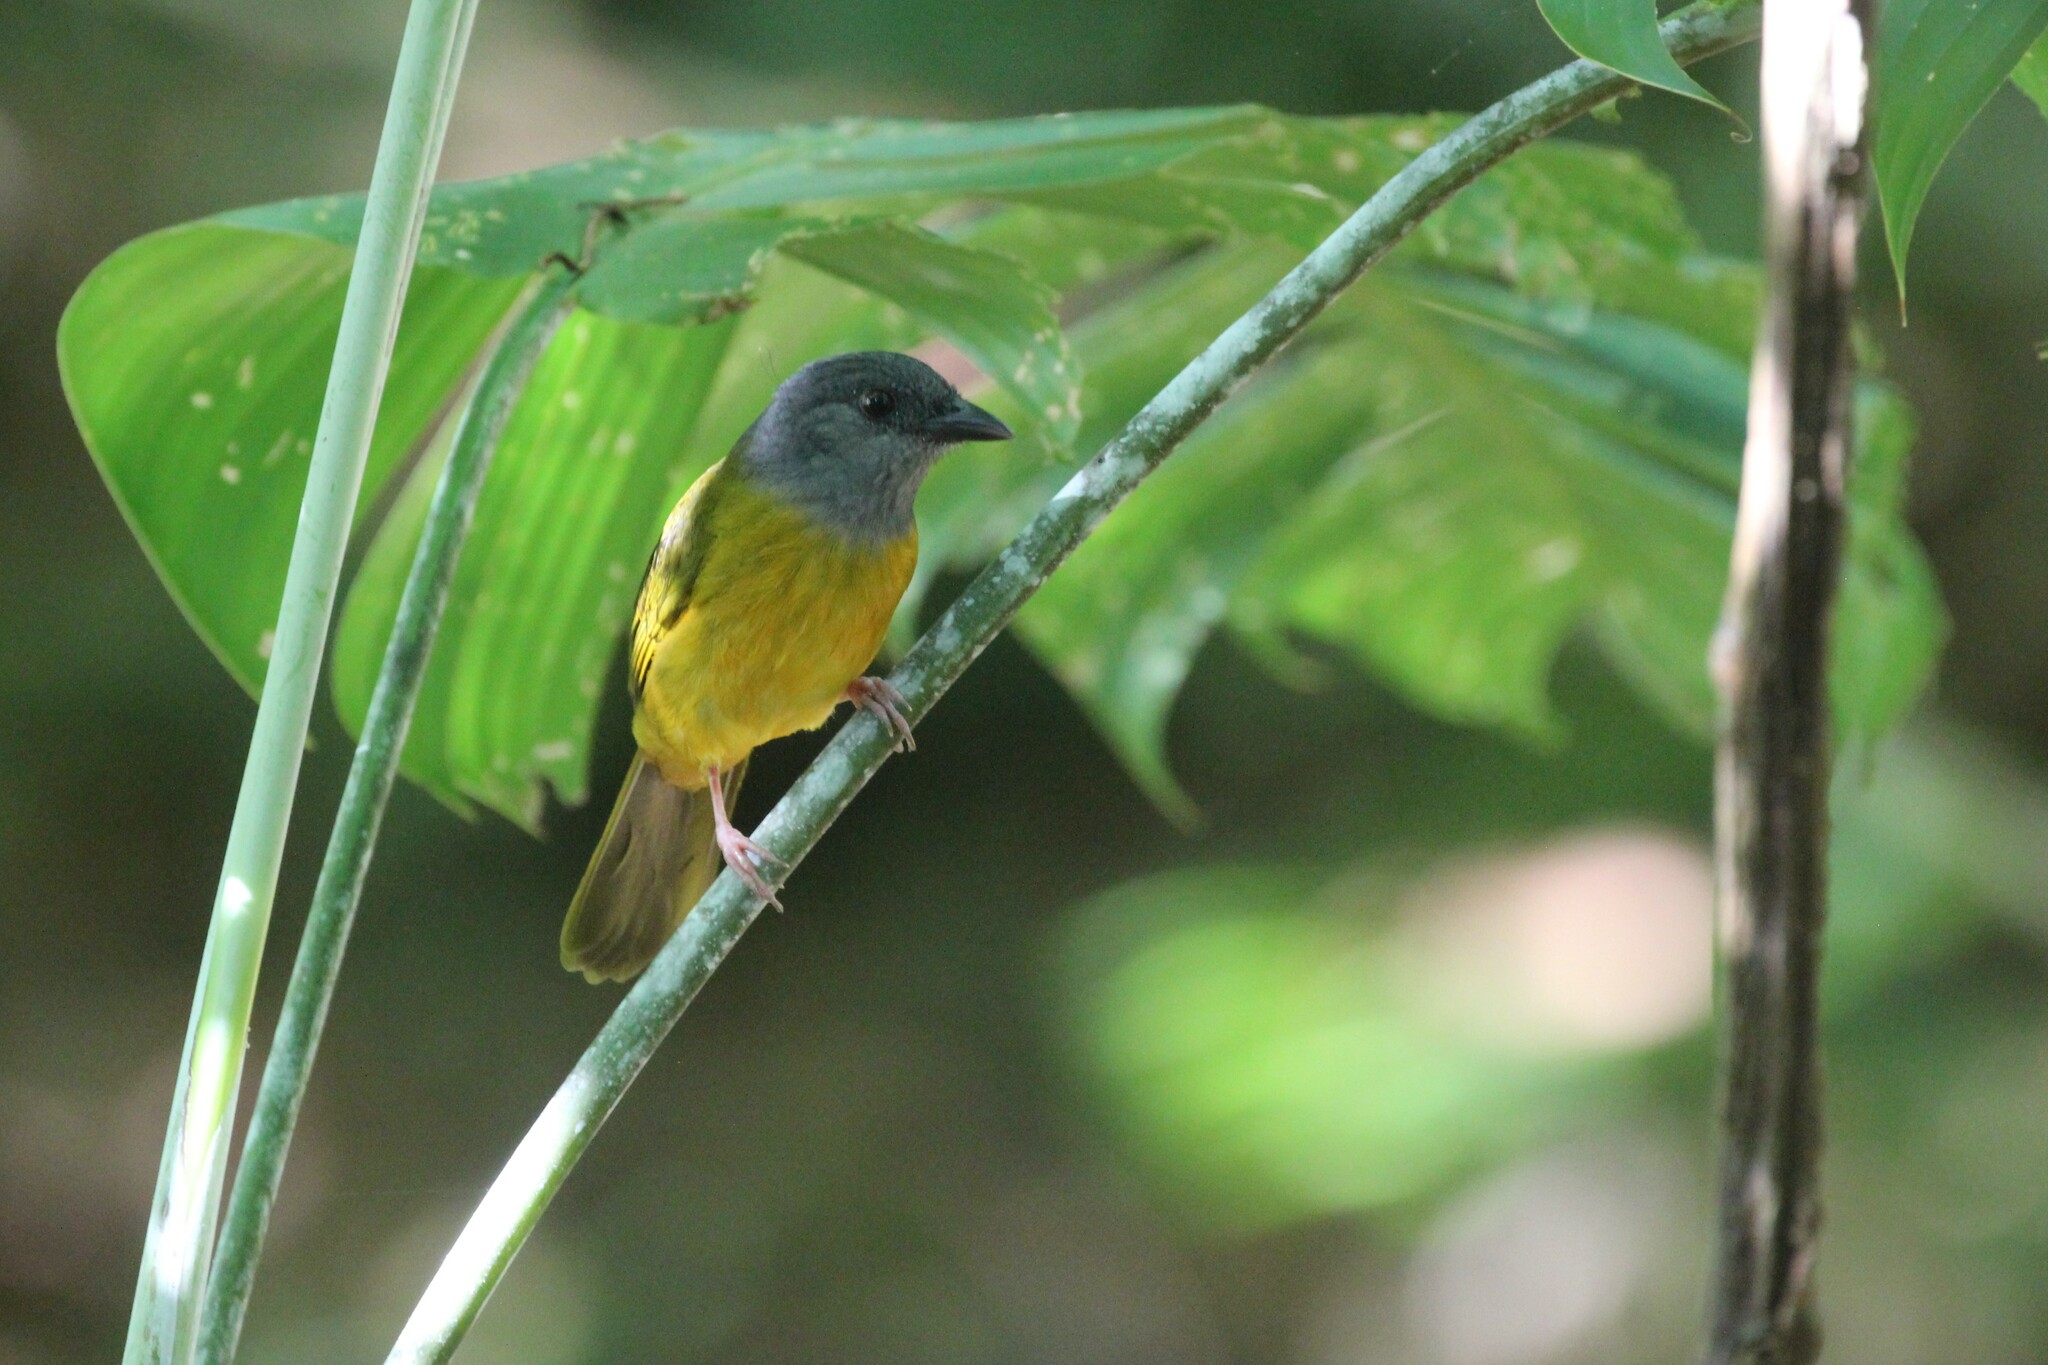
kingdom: Animalia
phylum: Chordata
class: Aves
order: Passeriformes
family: Thraupidae
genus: Eucometis
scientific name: Eucometis penicillata
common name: Grey-headed tanager
